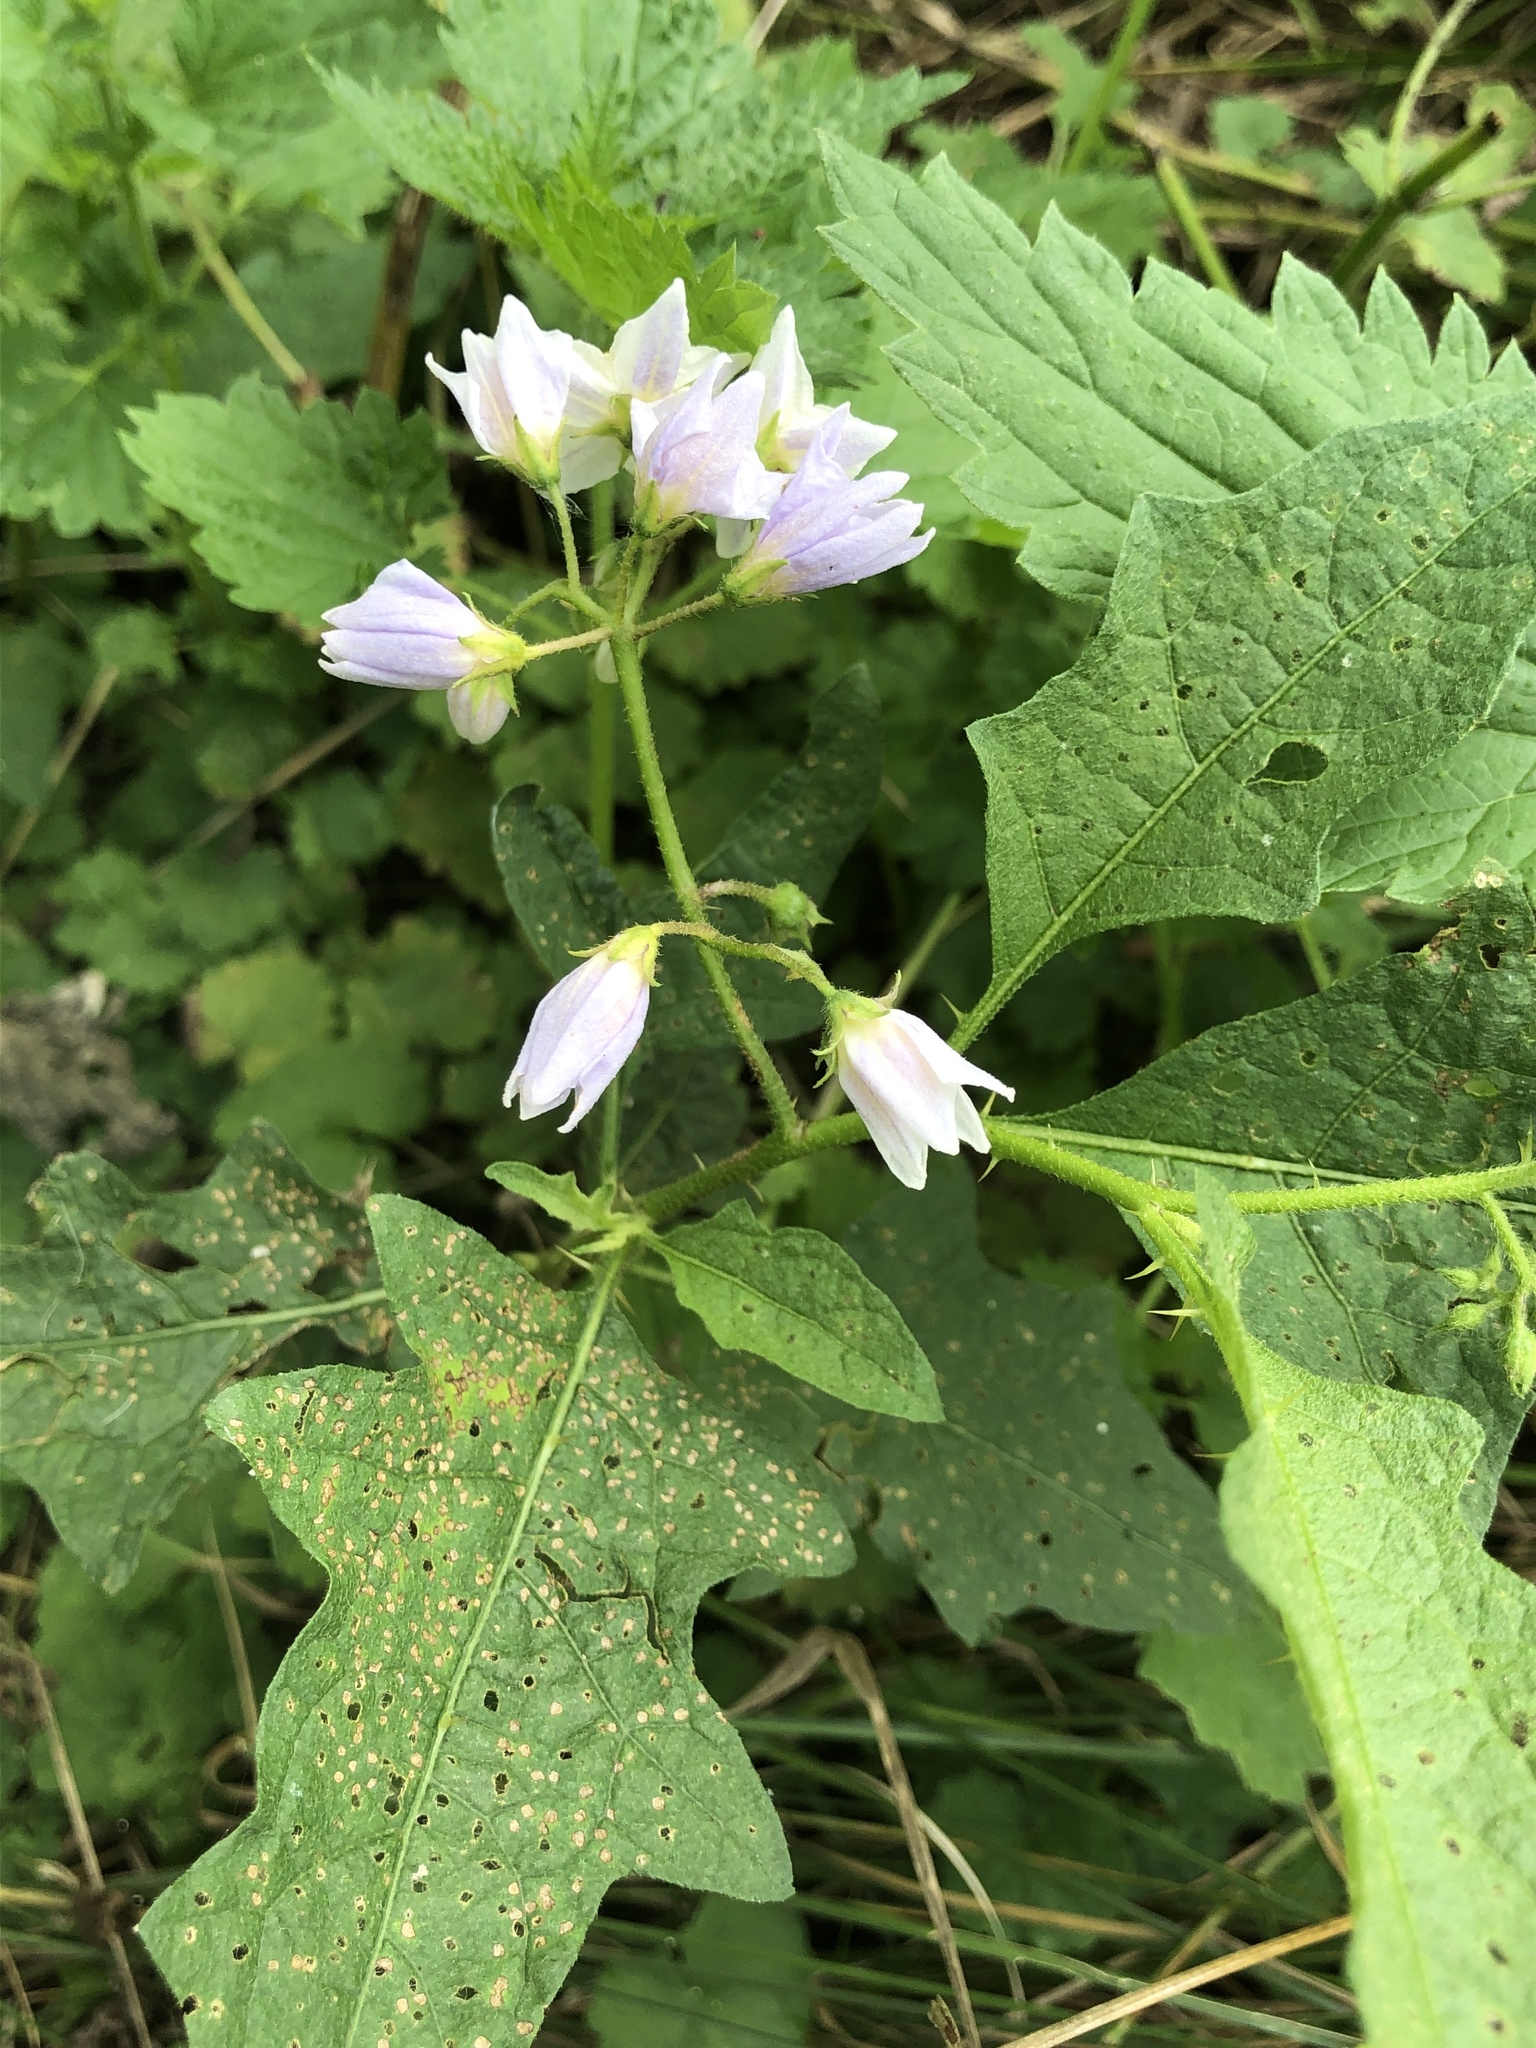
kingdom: Plantae
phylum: Tracheophyta
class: Magnoliopsida
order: Solanales
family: Solanaceae
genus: Solanum
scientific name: Solanum carolinense
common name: Horse-nettle
